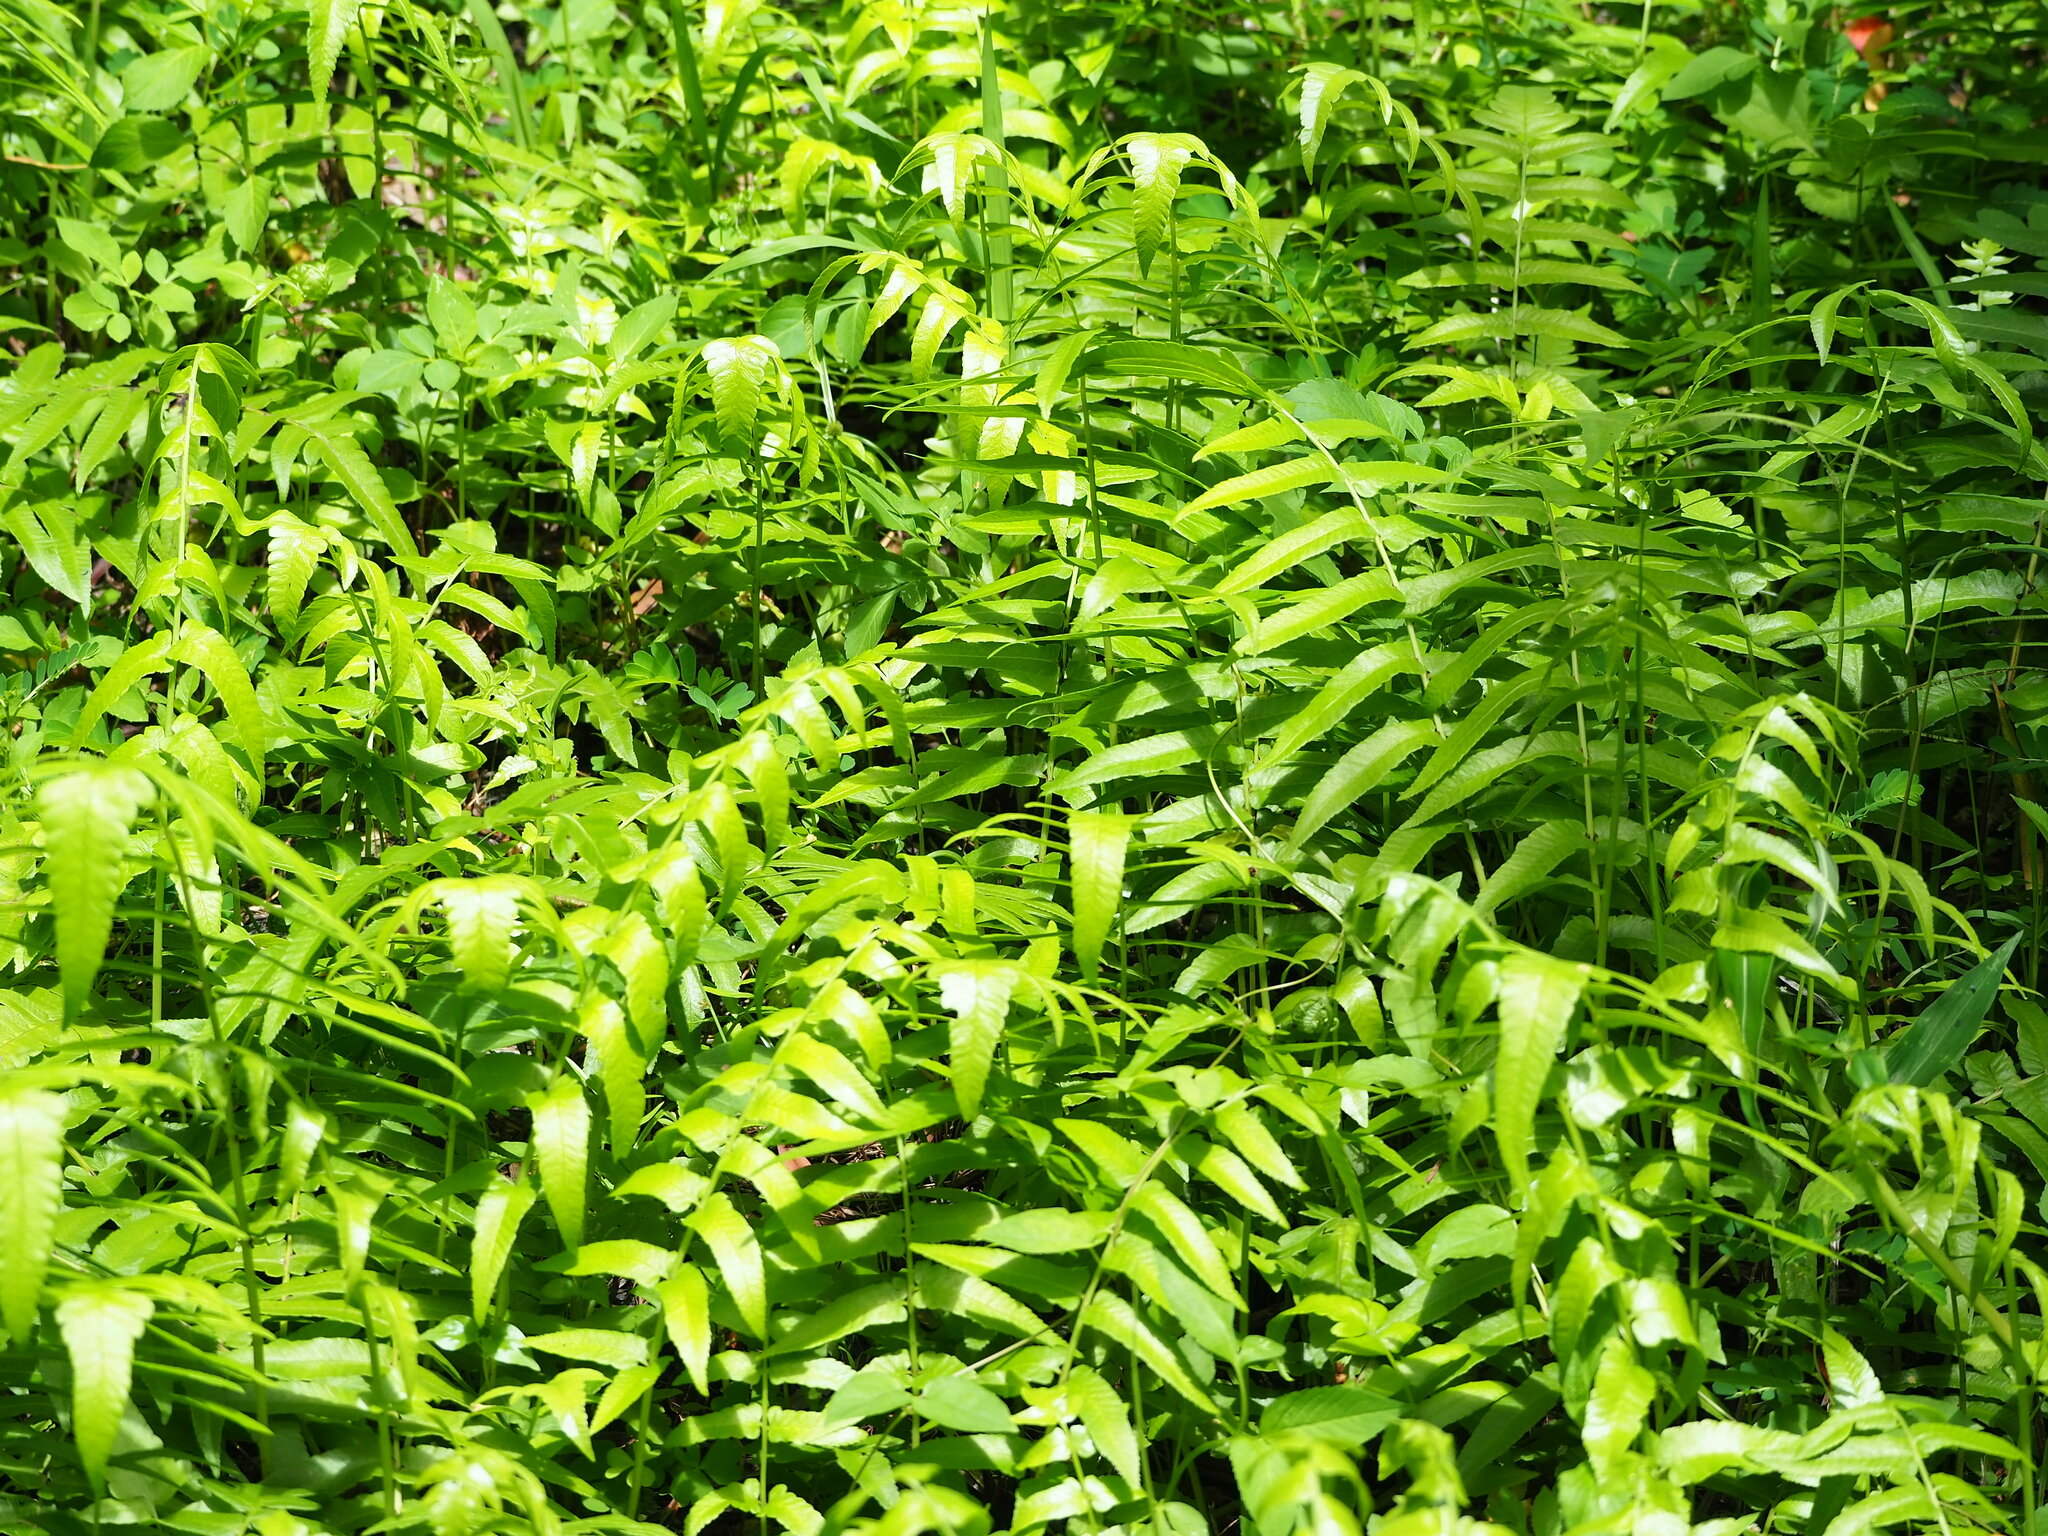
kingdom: Plantae
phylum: Tracheophyta
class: Polypodiopsida
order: Polypodiales
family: Athyriaceae
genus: Diplazium
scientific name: Diplazium esculentum
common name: Vegetable fern
